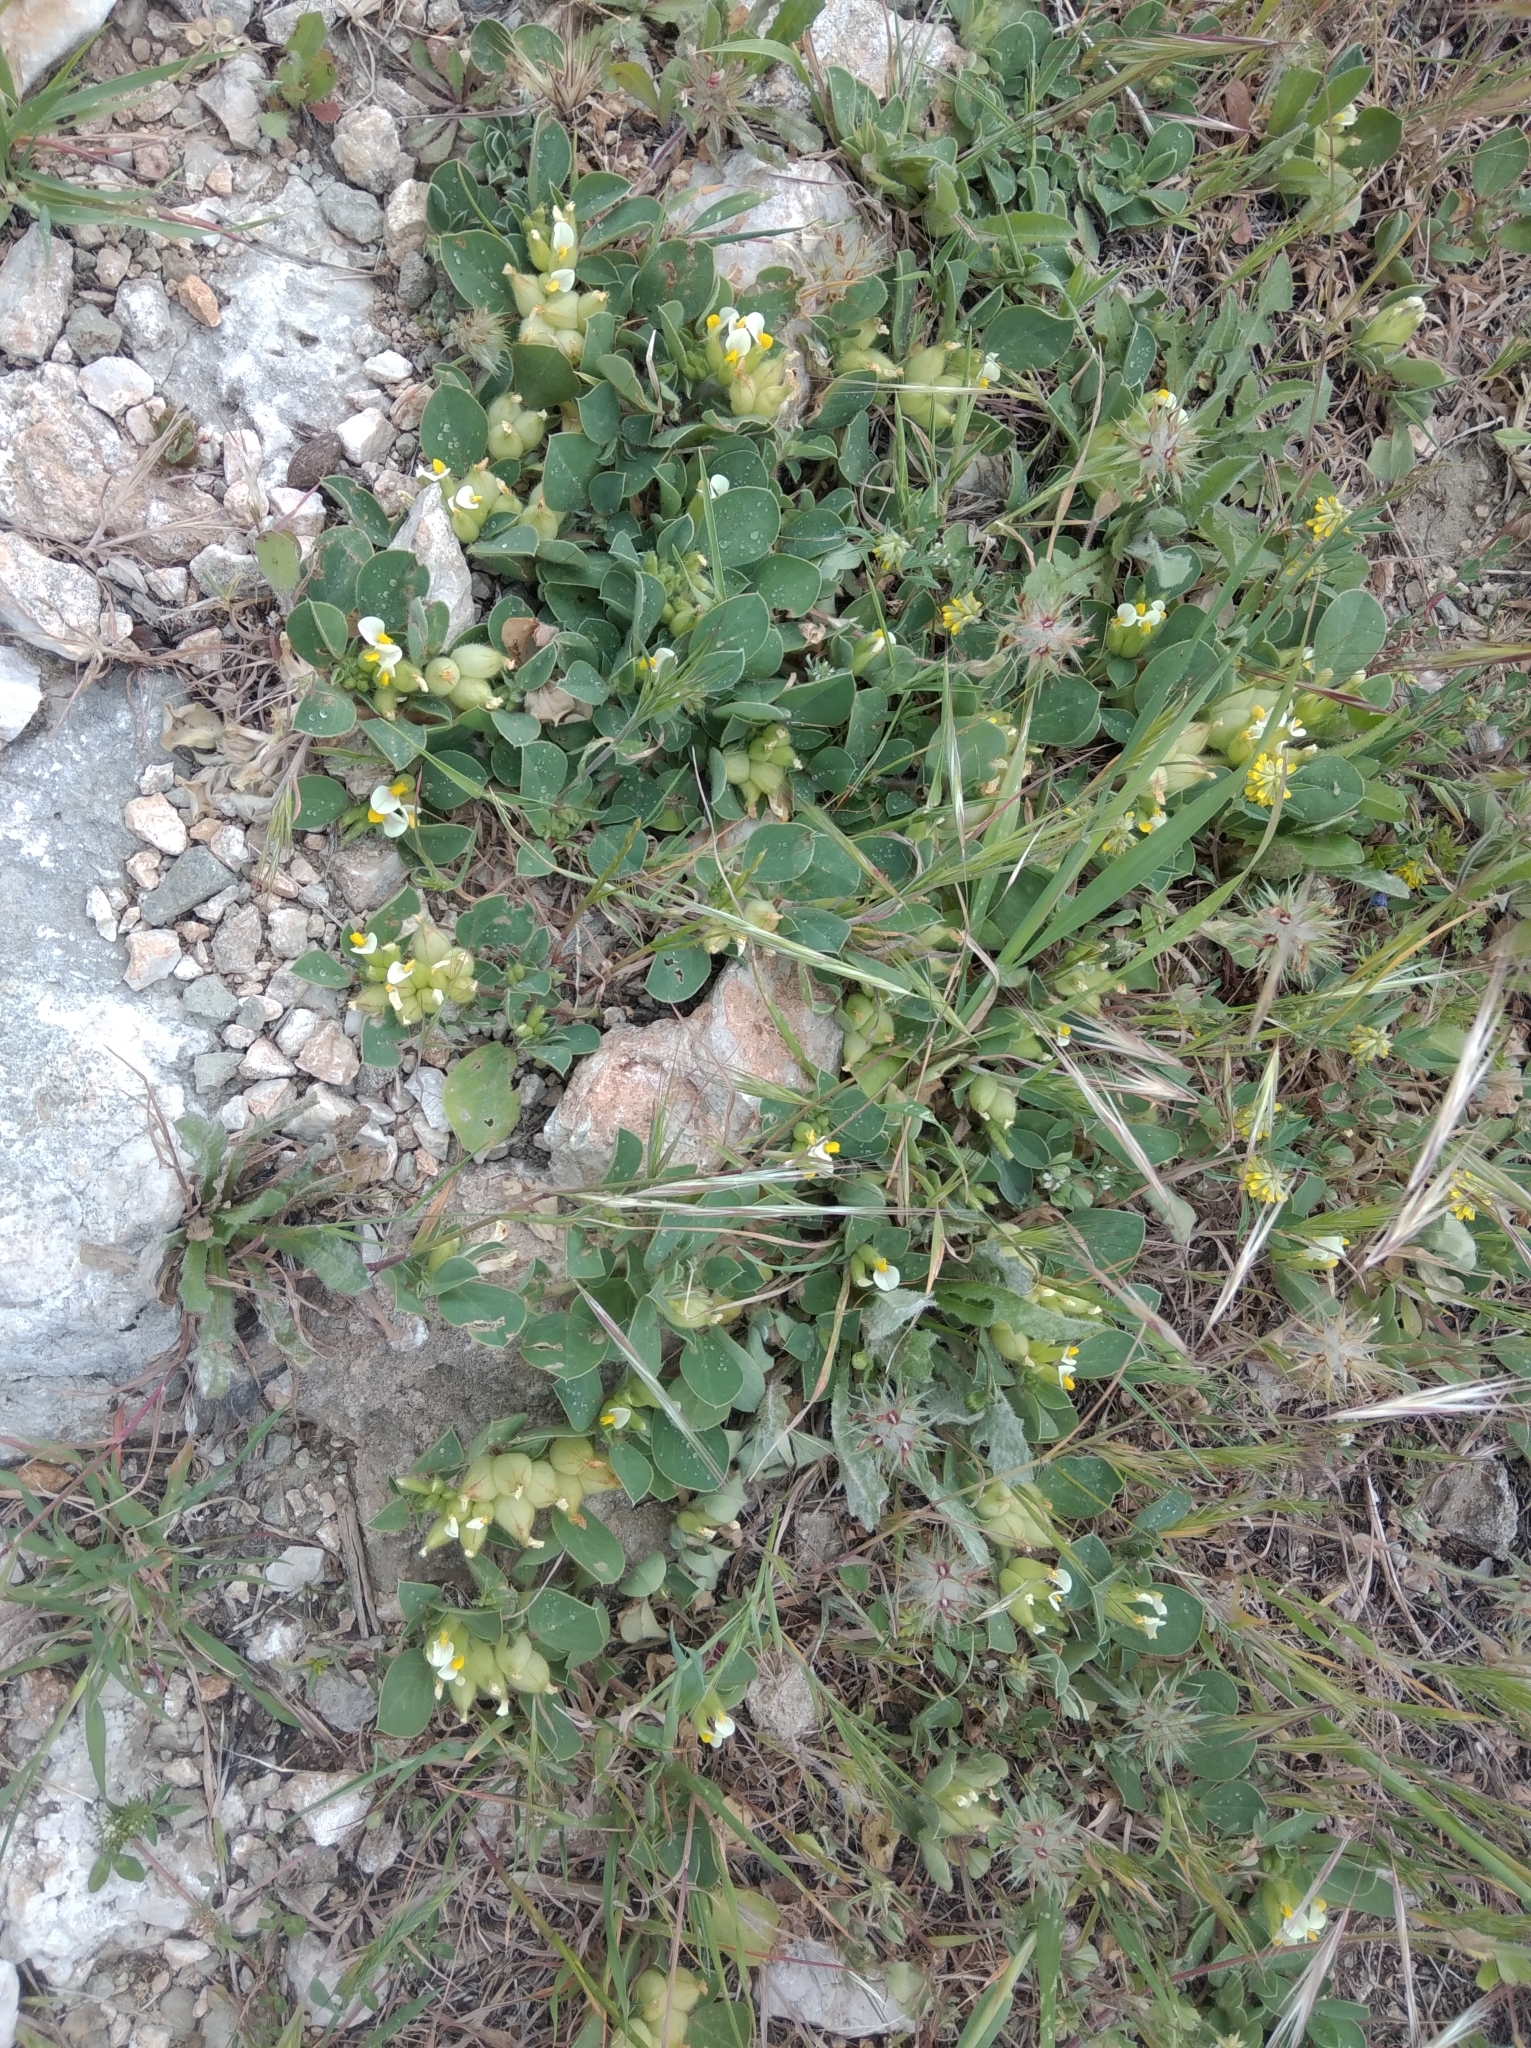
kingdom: Plantae
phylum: Tracheophyta
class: Magnoliopsida
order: Fabales
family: Fabaceae
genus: Tripodion
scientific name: Tripodion tetraphyllum
